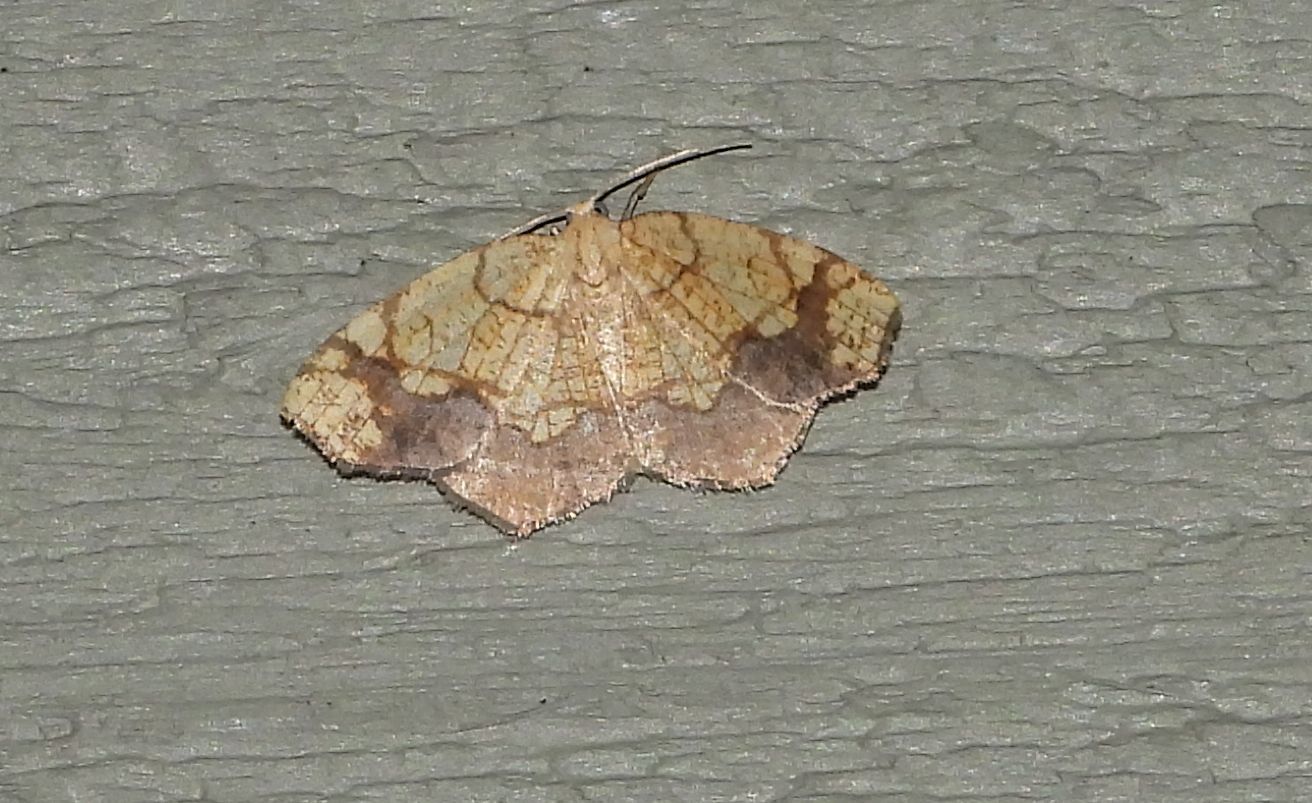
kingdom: Animalia
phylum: Arthropoda
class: Insecta
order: Lepidoptera
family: Geometridae
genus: Nematocampa
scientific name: Nematocampa resistaria
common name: Horned spanworm moth
